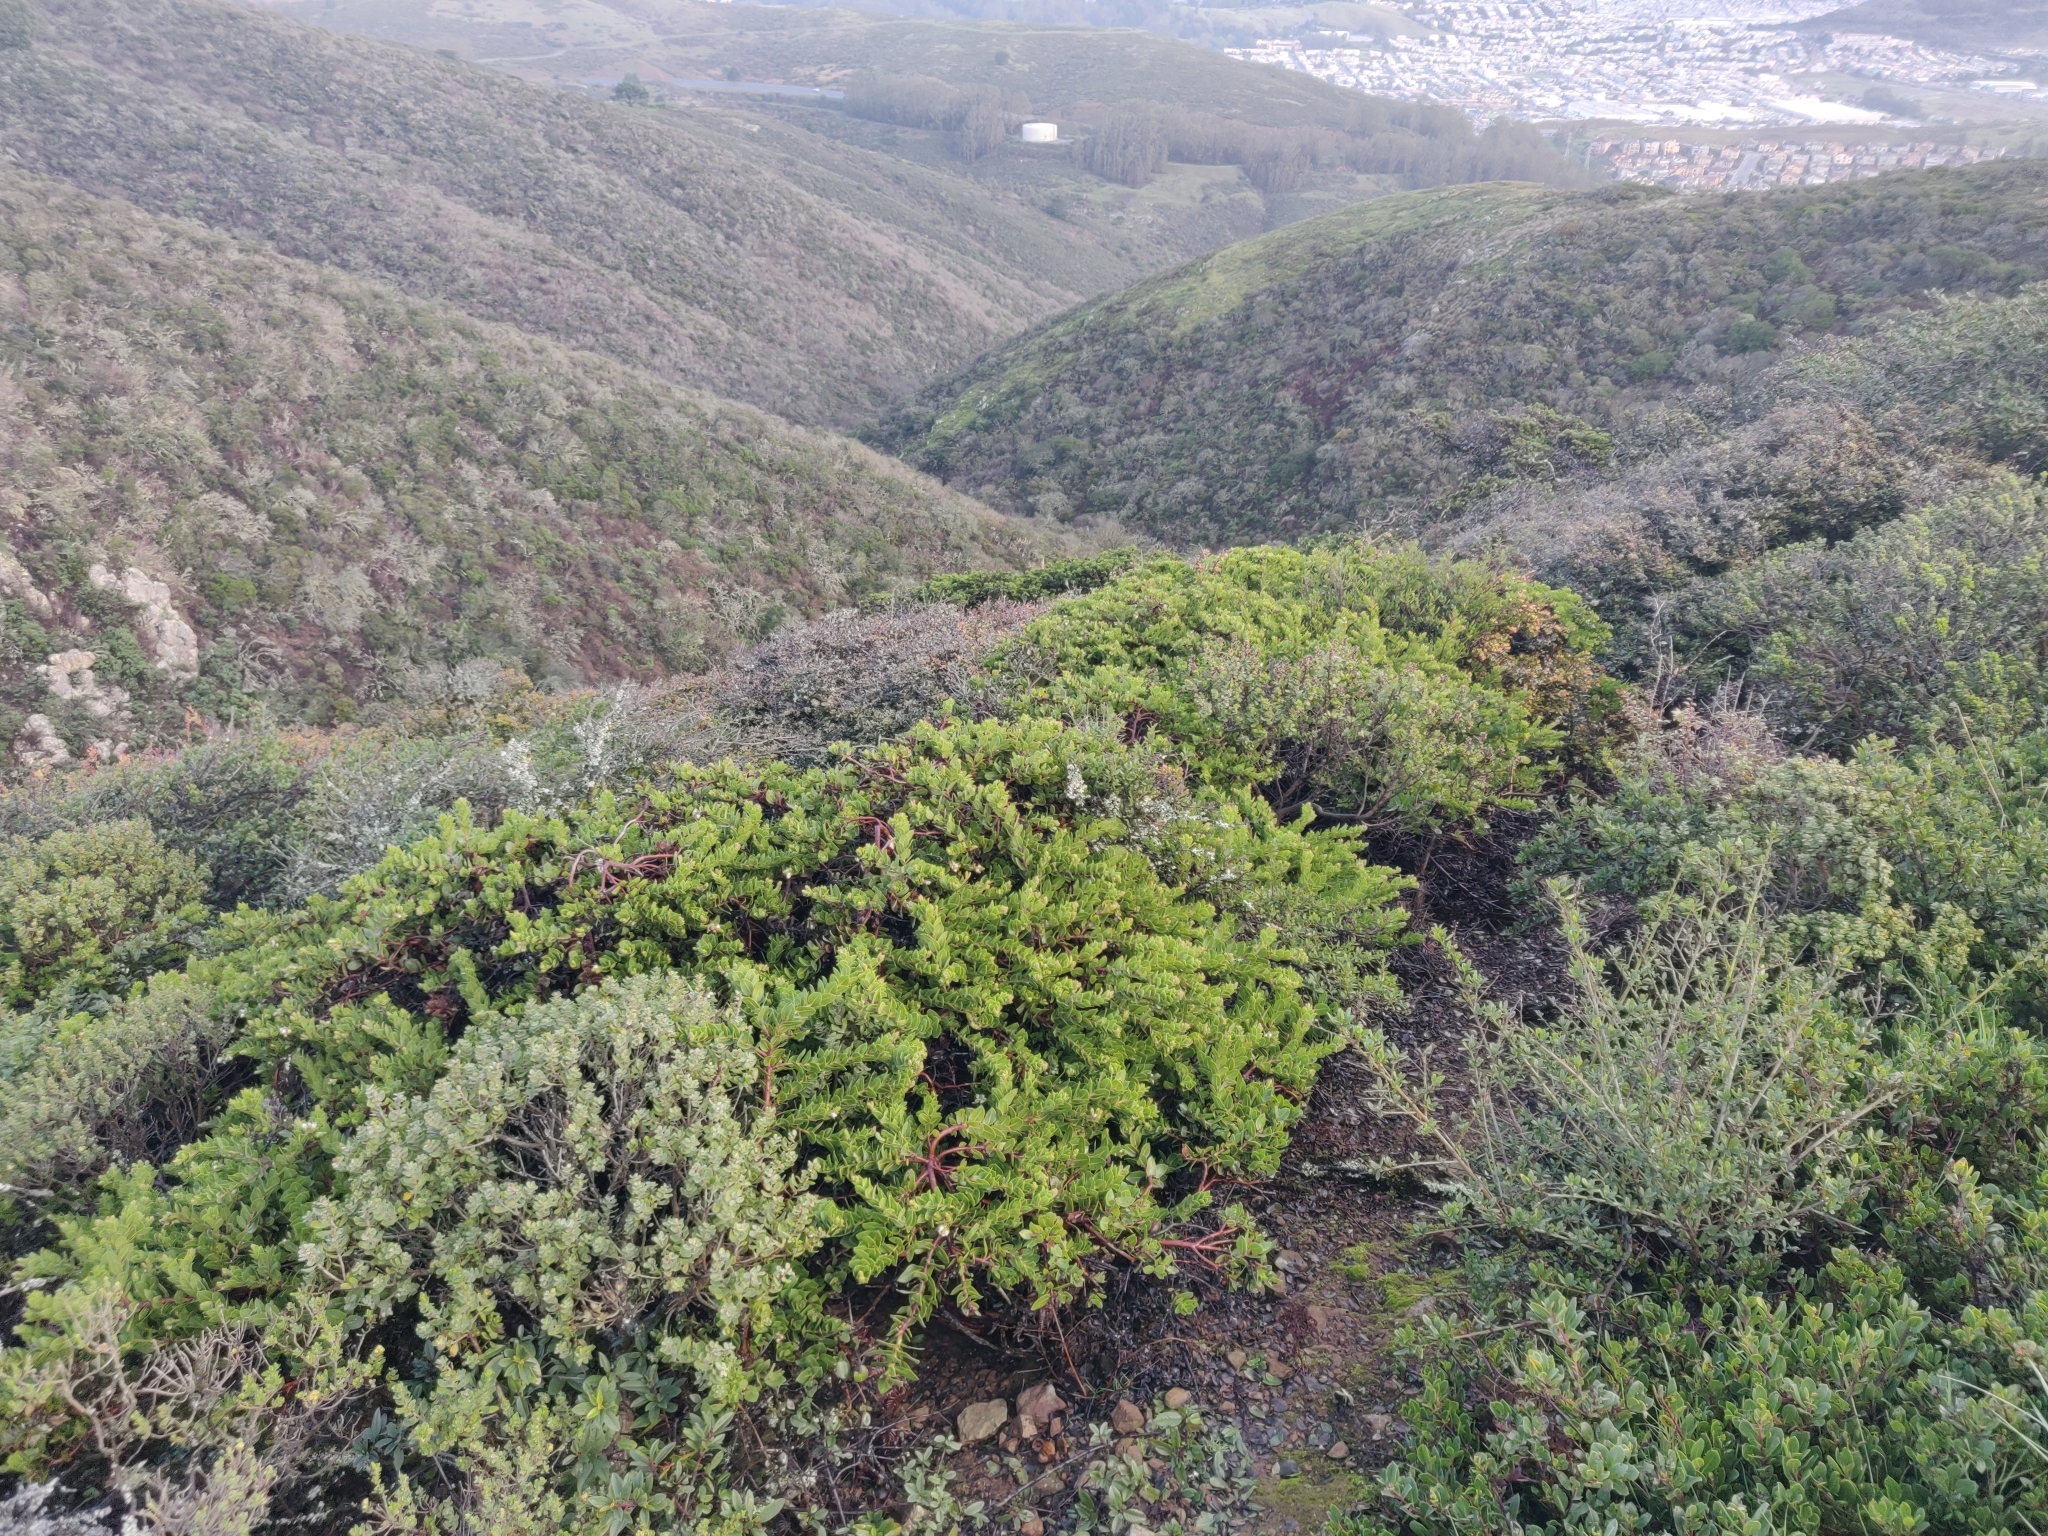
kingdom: Plantae
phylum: Tracheophyta
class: Magnoliopsida
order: Ericales
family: Ericaceae
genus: Arctostaphylos
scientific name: Arctostaphylos imbricata
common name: San bruno mountain manzanita
